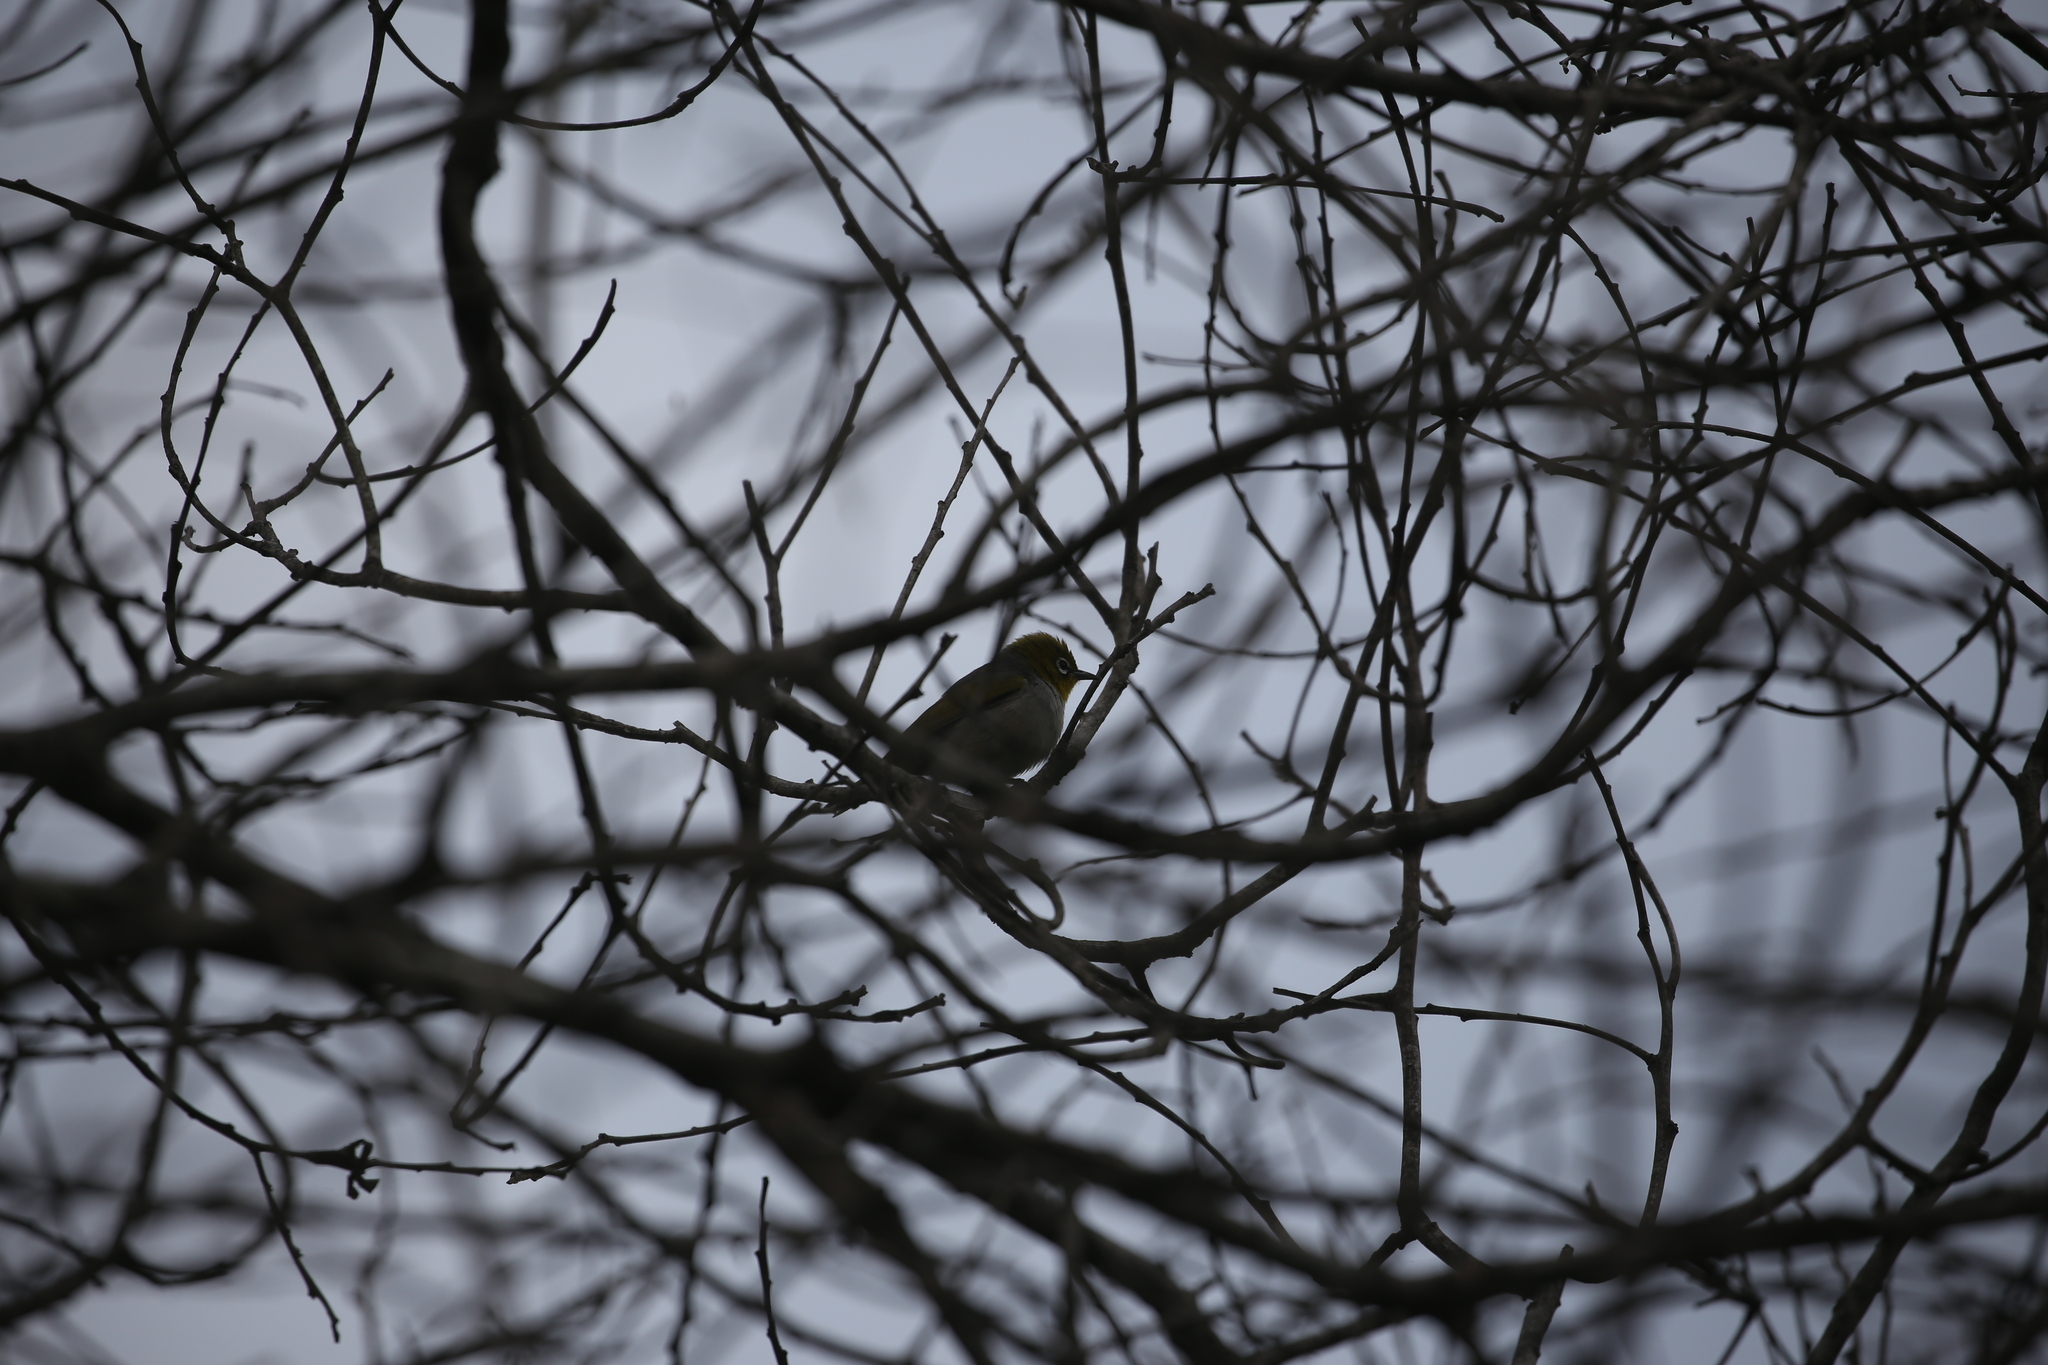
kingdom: Animalia
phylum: Chordata
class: Aves
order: Passeriformes
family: Zosteropidae
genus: Zosterops
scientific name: Zosterops lateralis
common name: Silvereye
